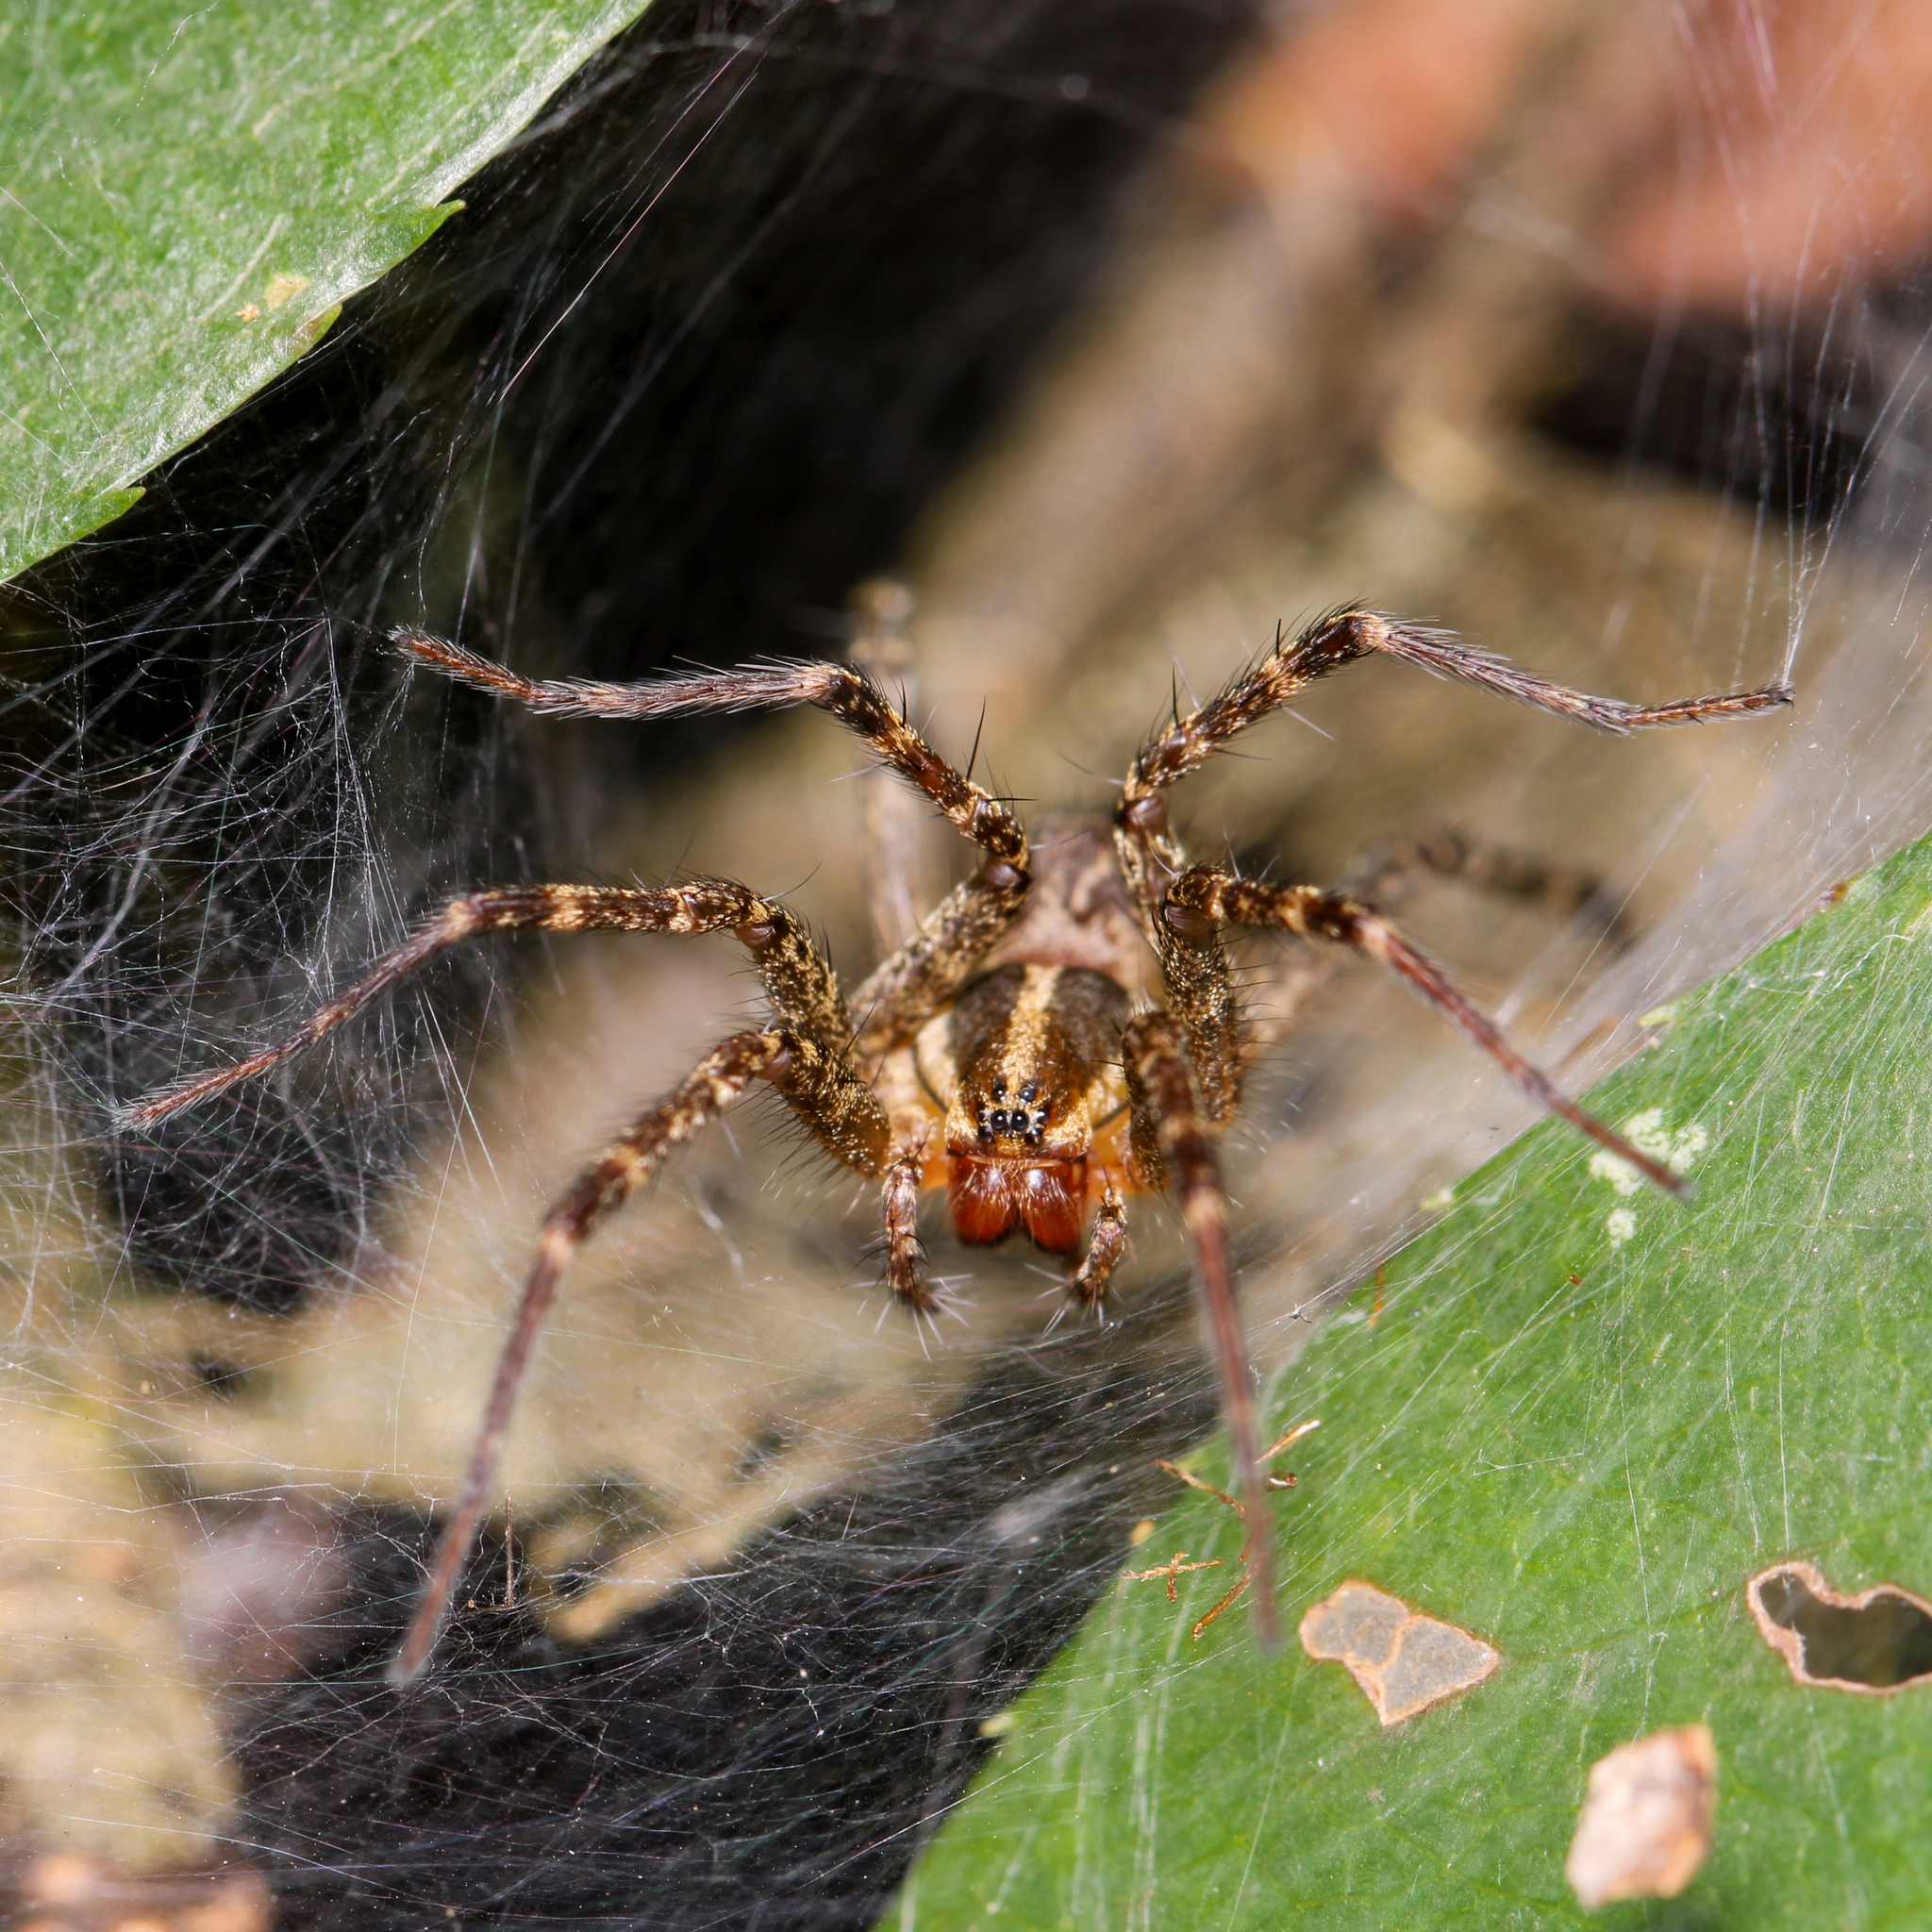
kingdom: Animalia
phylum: Arthropoda
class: Arachnida
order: Araneae
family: Agelenidae
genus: Agelenopsis
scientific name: Agelenopsis
